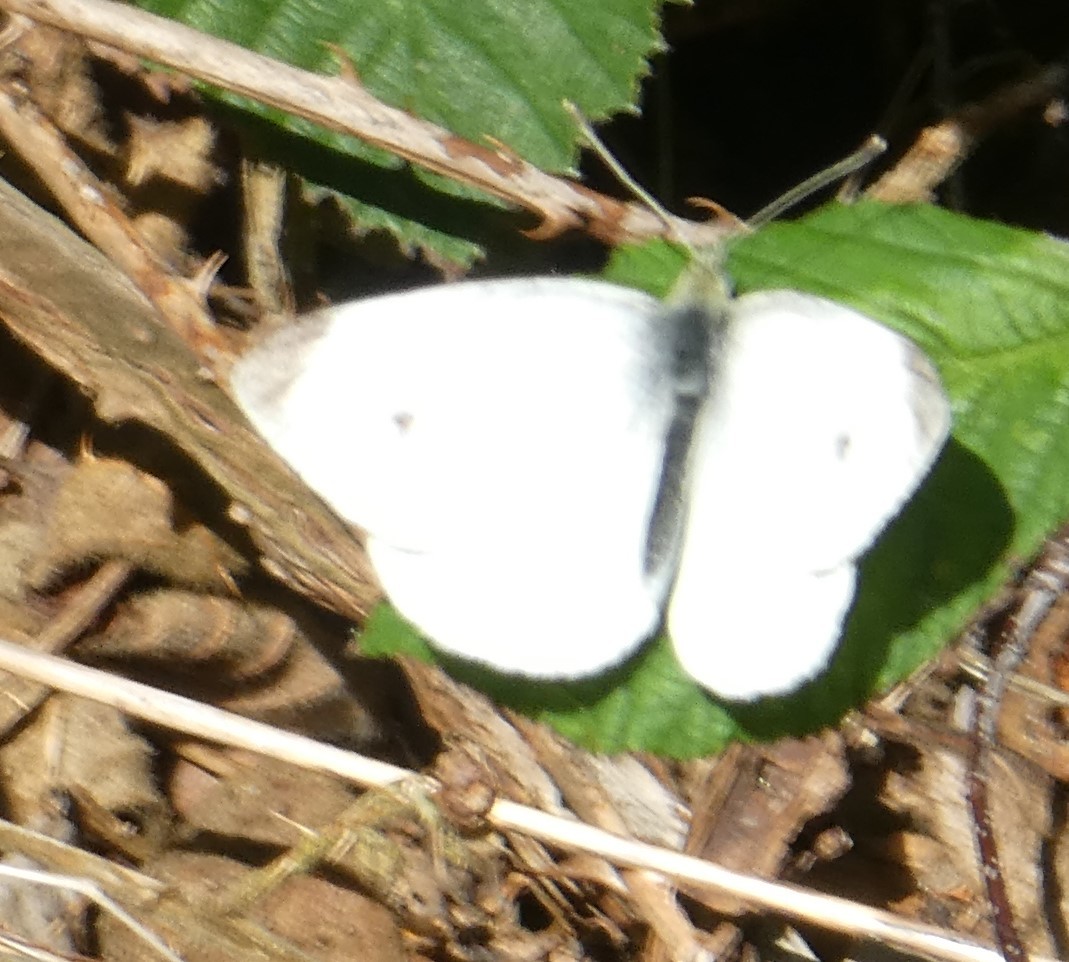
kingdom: Animalia
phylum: Arthropoda
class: Insecta
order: Lepidoptera
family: Pieridae
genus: Pieris
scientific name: Pieris rapae
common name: Small white
